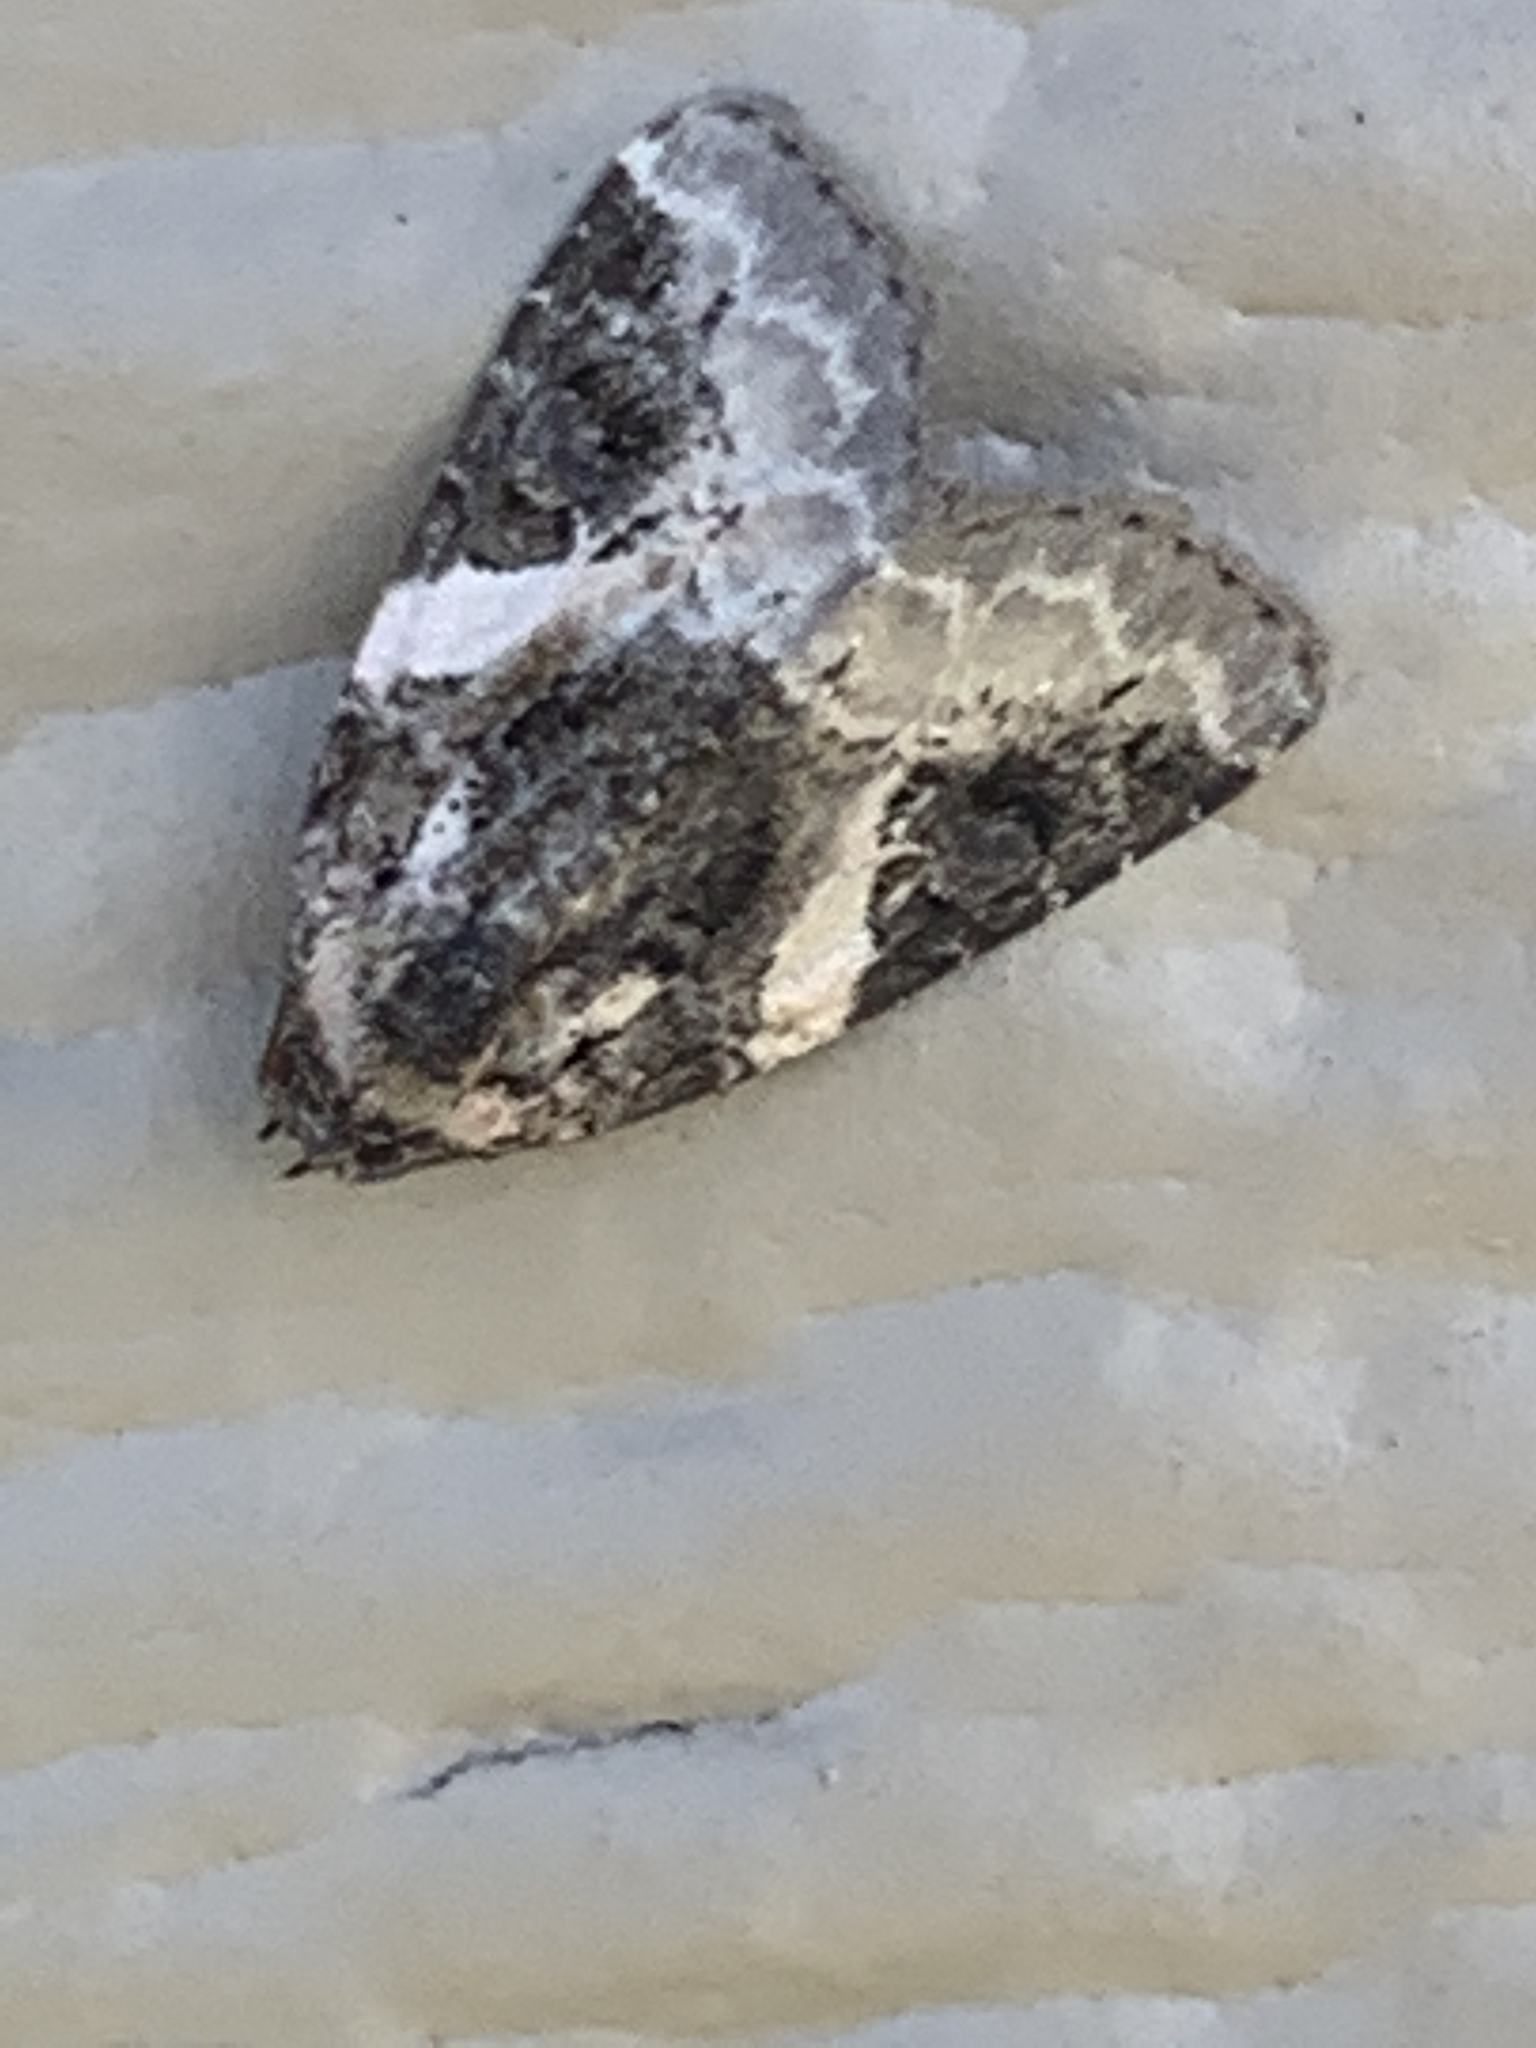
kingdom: Animalia
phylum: Arthropoda
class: Insecta
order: Lepidoptera
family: Noctuidae
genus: Pseudeustrotia
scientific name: Pseudeustrotia carneola
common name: Pink-barred lithacodia moth
